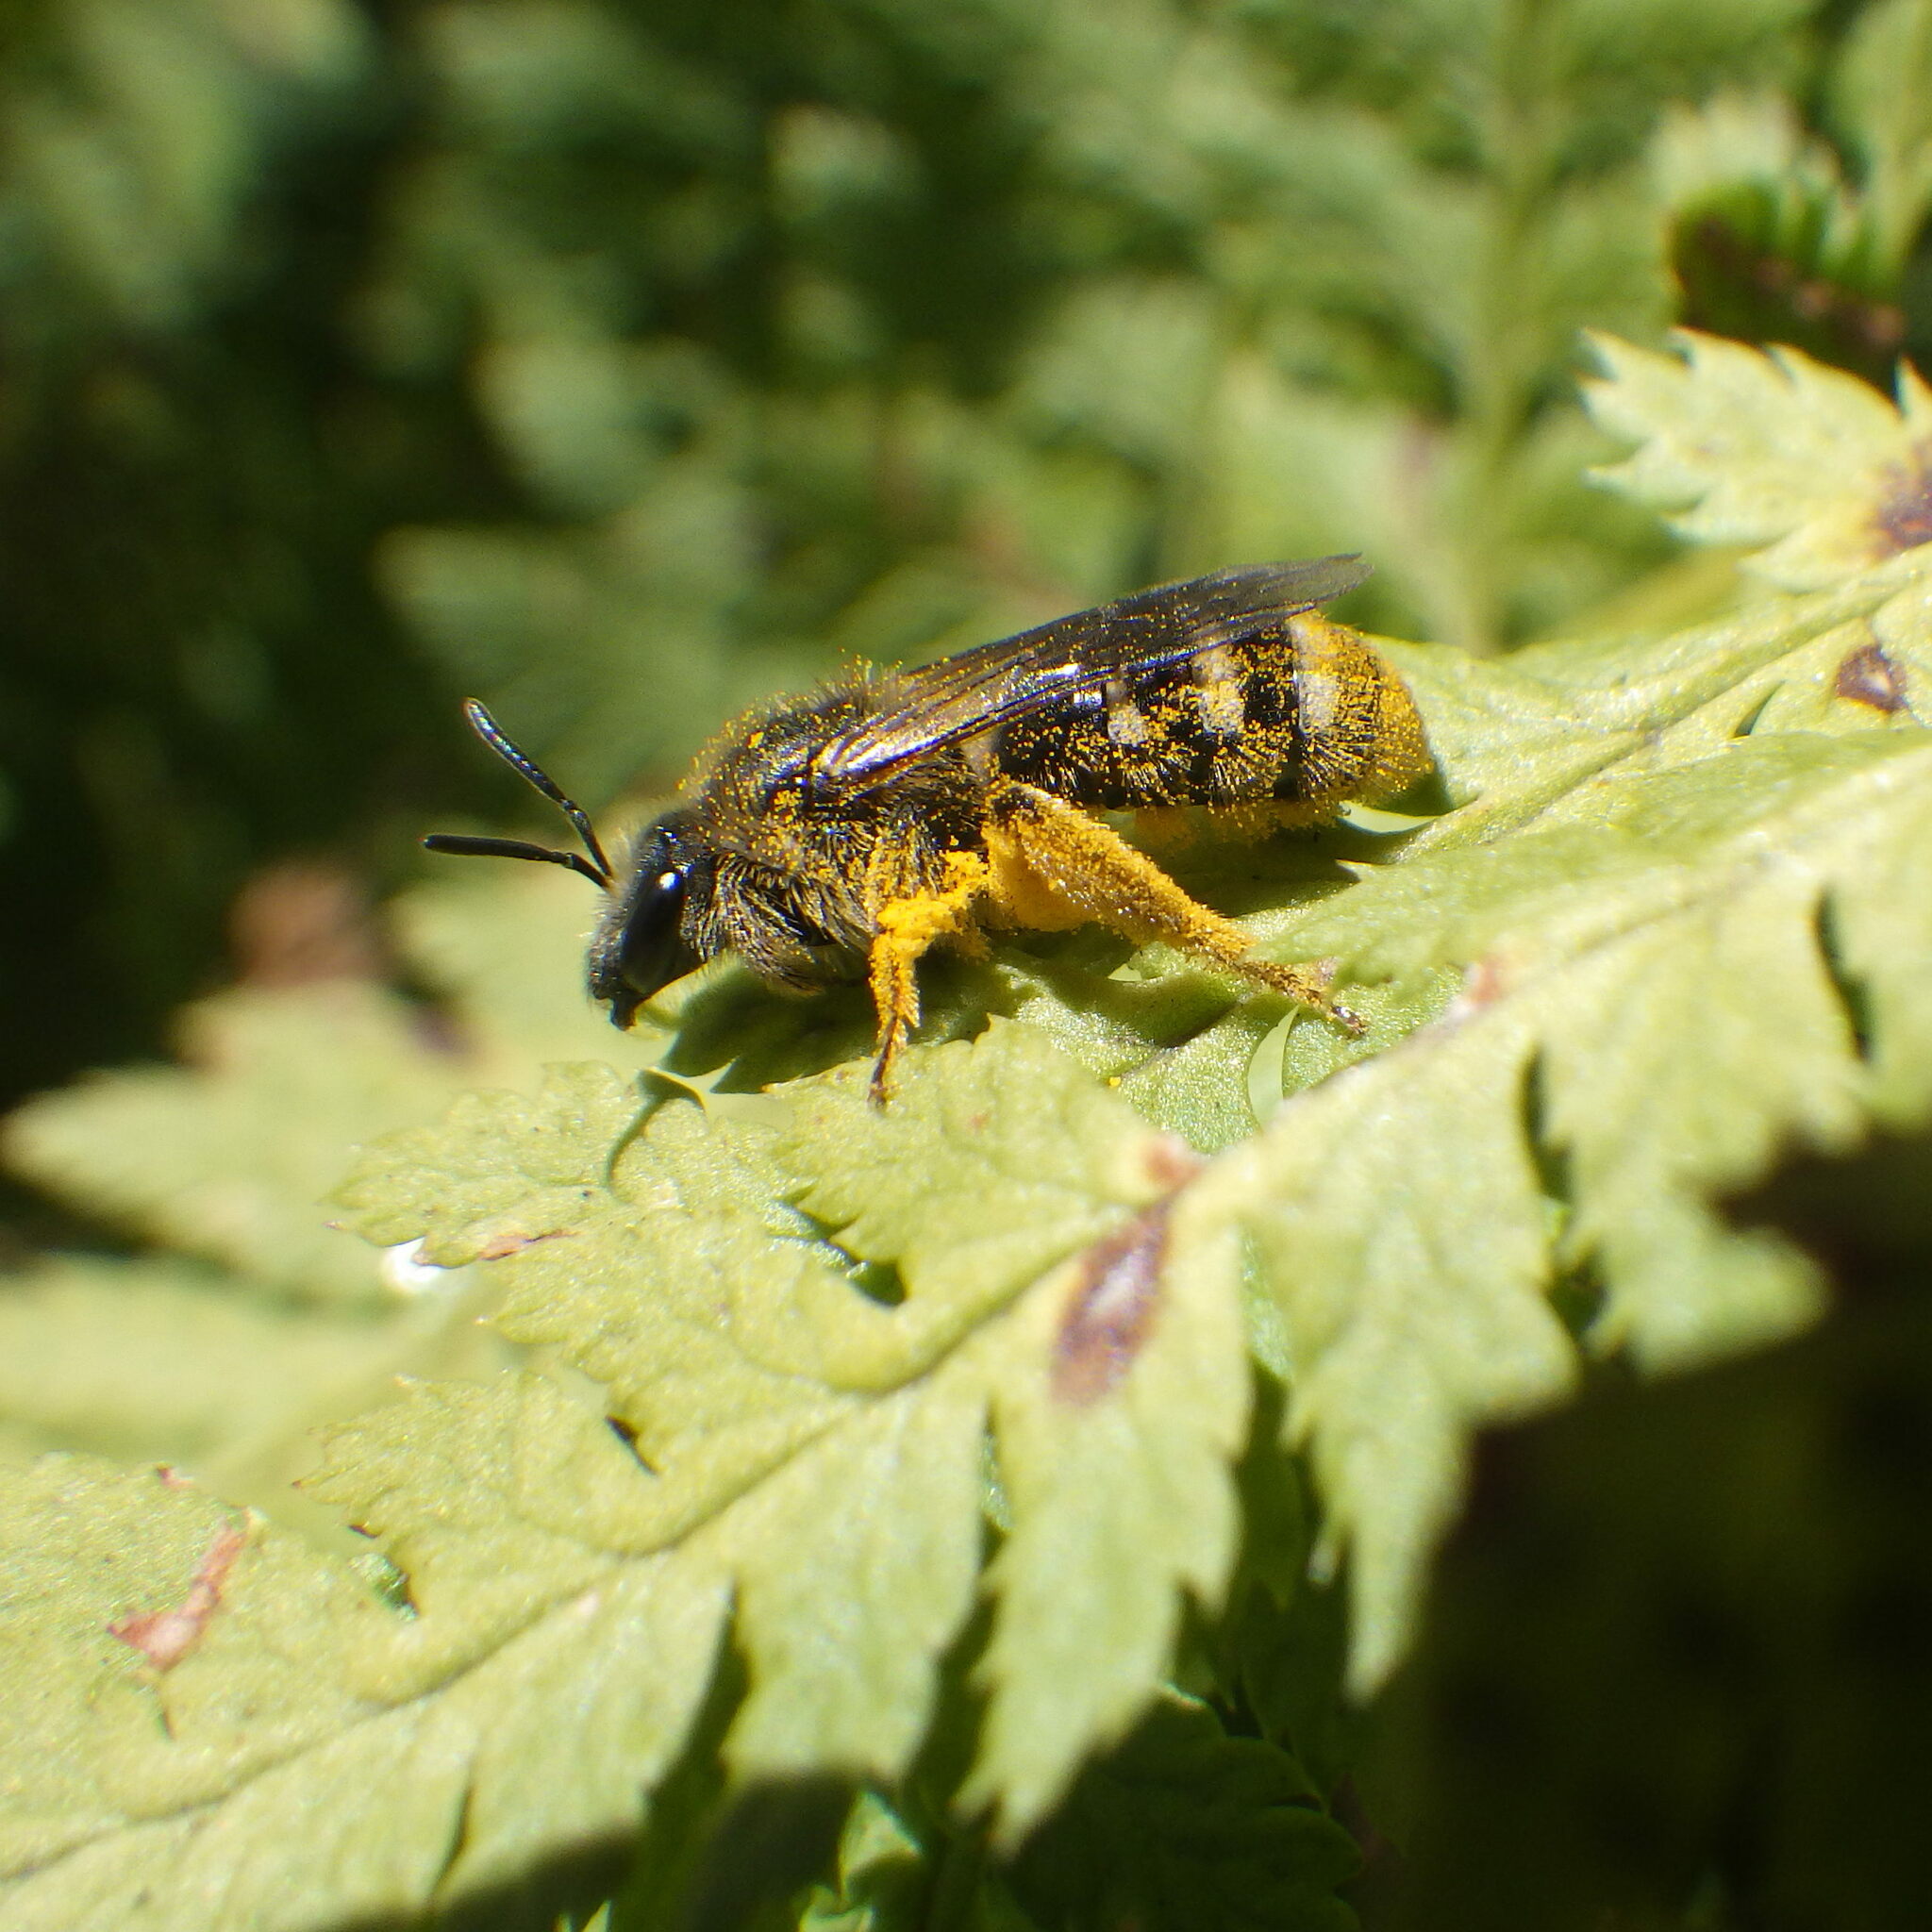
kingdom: Animalia
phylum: Arthropoda
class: Insecta
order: Hymenoptera
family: Halictidae
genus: Lasioglossum
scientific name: Lasioglossum leucozonium
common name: White-zoned furrow bee
